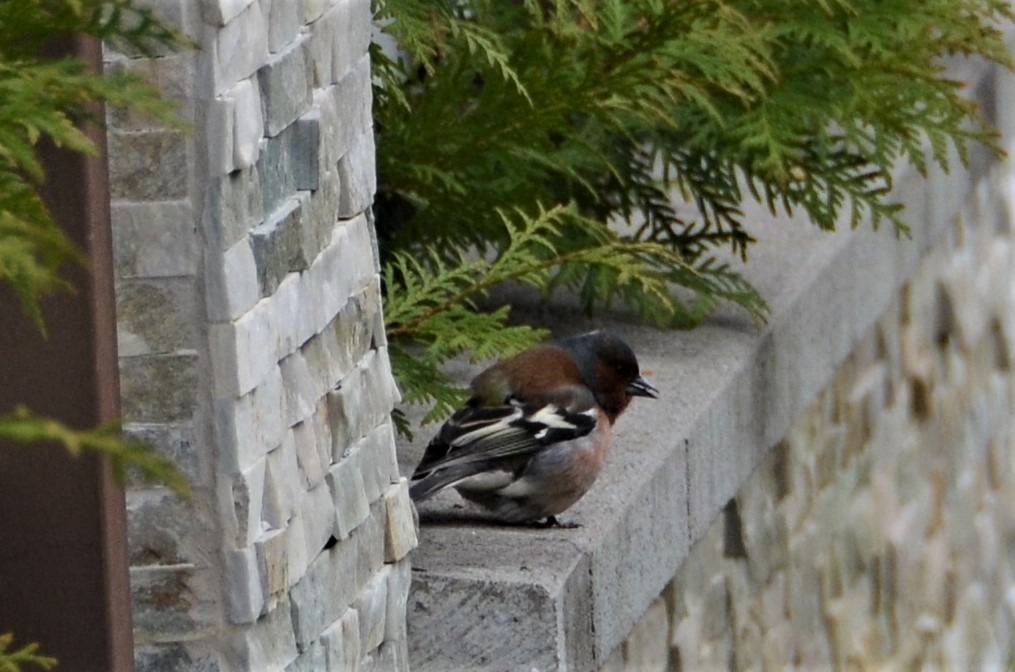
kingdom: Animalia
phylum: Chordata
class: Aves
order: Passeriformes
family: Fringillidae
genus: Fringilla
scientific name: Fringilla coelebs
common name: Common chaffinch
